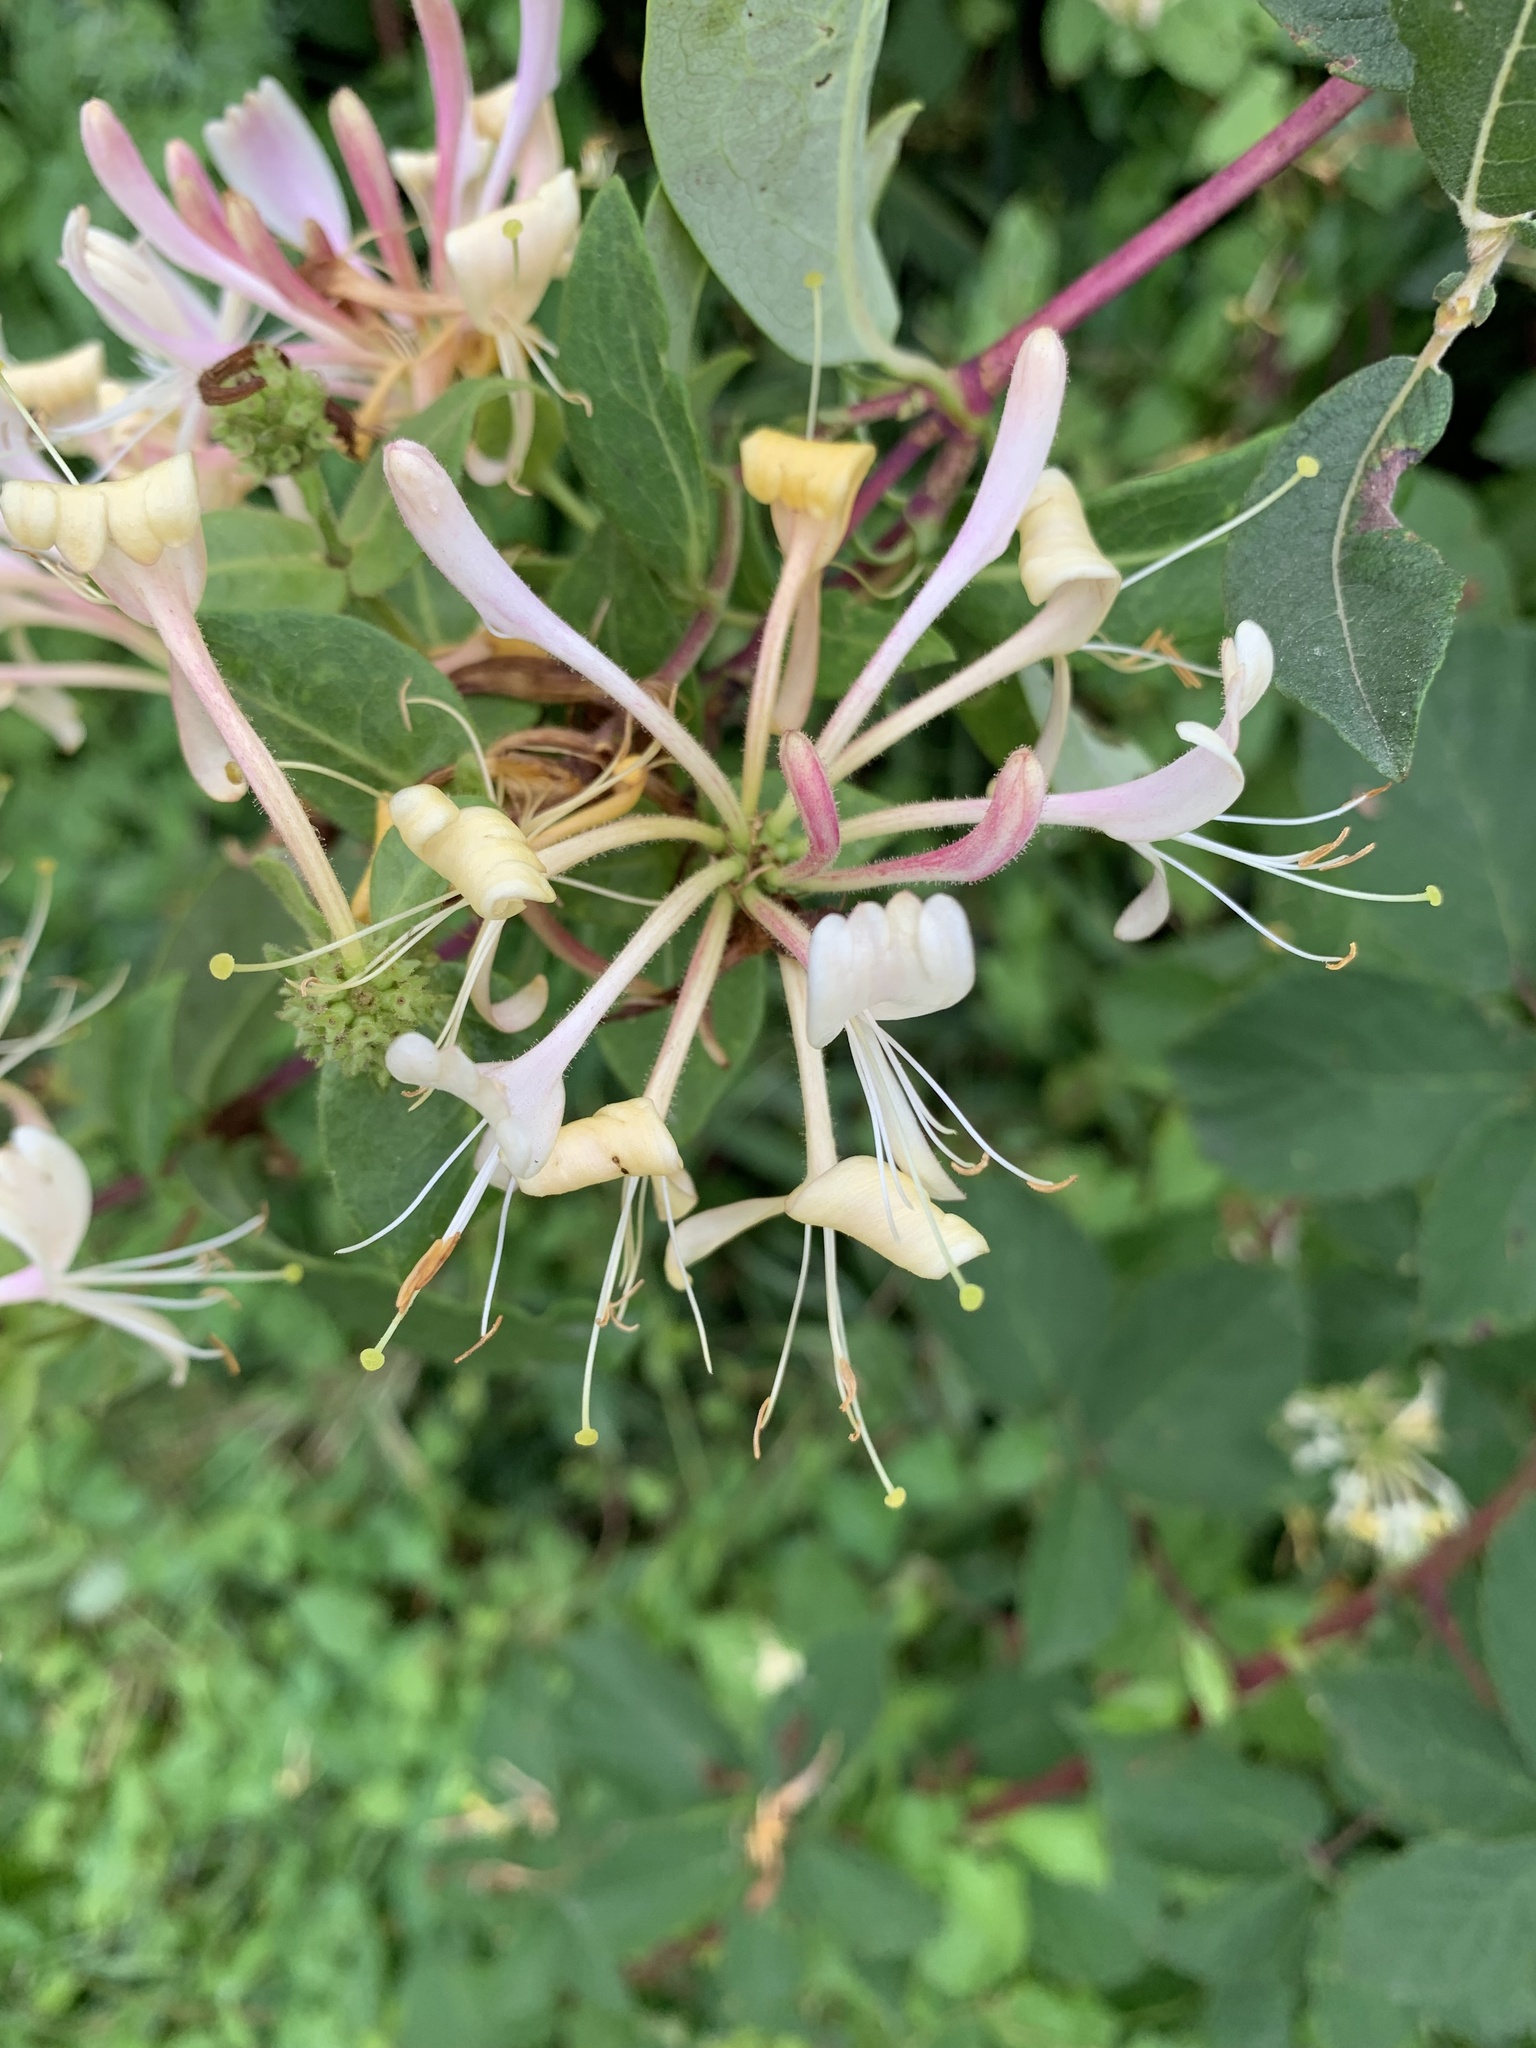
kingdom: Plantae
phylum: Tracheophyta
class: Magnoliopsida
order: Dipsacales
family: Caprifoliaceae
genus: Lonicera
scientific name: Lonicera periclymenum
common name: European honeysuckle
